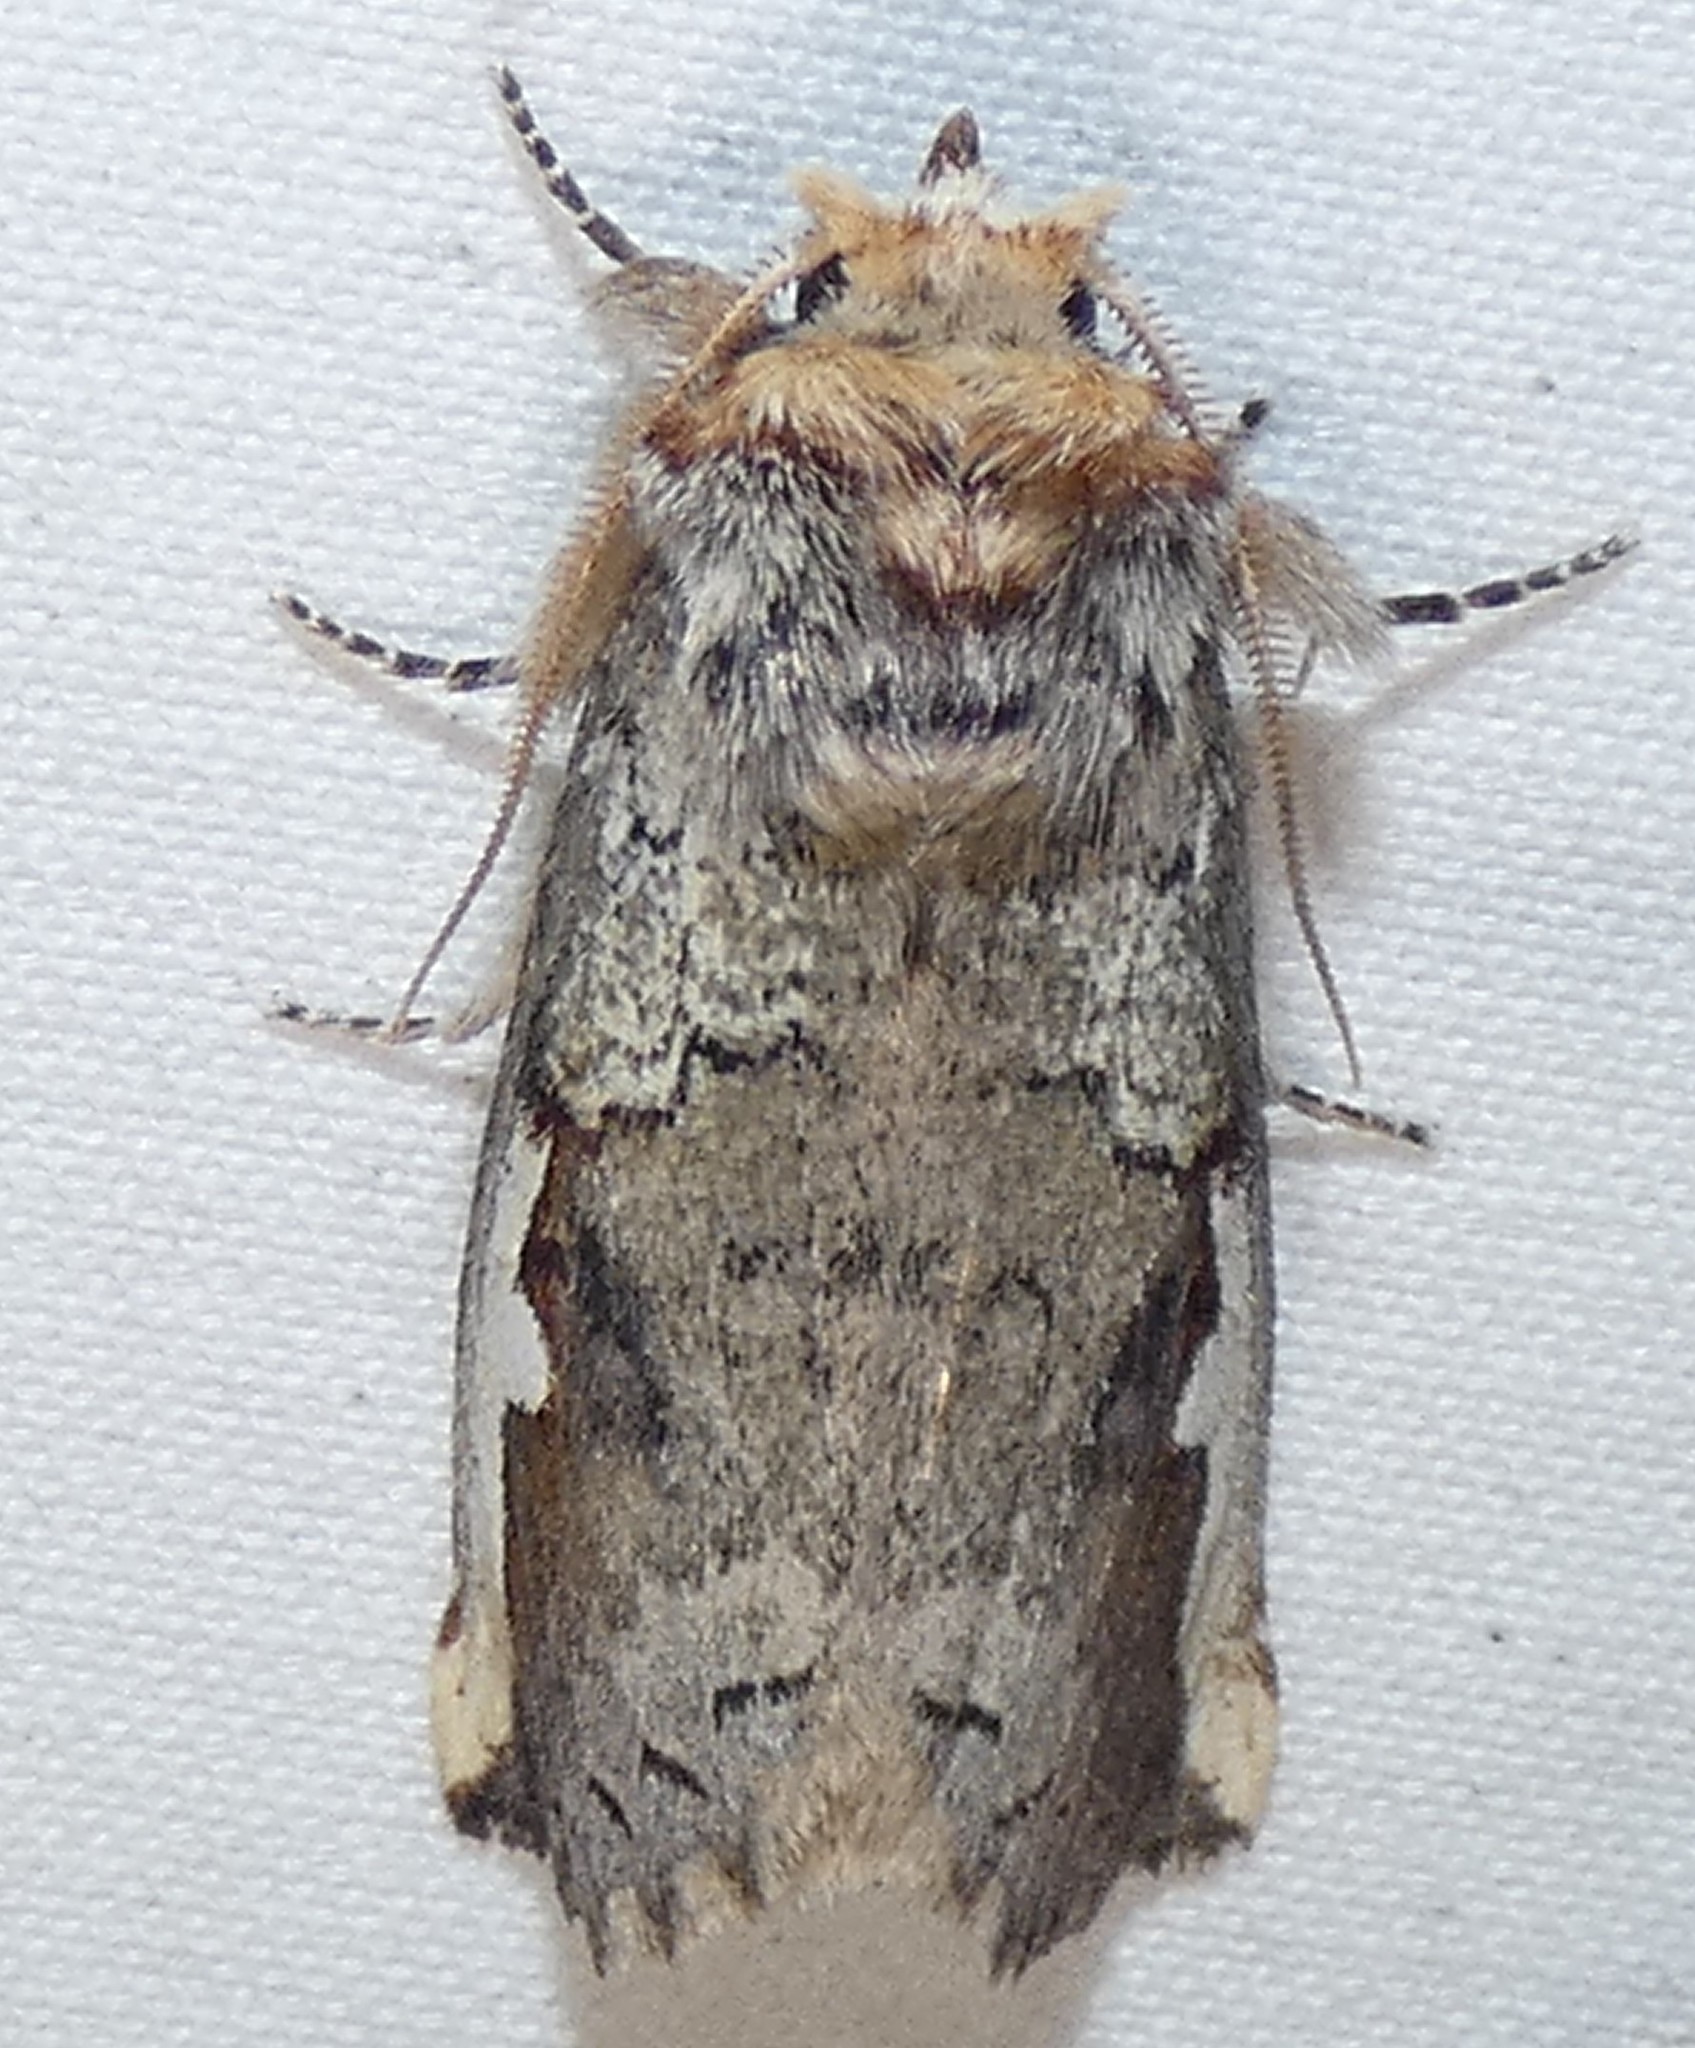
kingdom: Animalia
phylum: Arthropoda
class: Insecta
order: Lepidoptera
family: Notodontidae
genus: Symmerista
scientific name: Symmerista albifrons
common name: White-headed prominent
